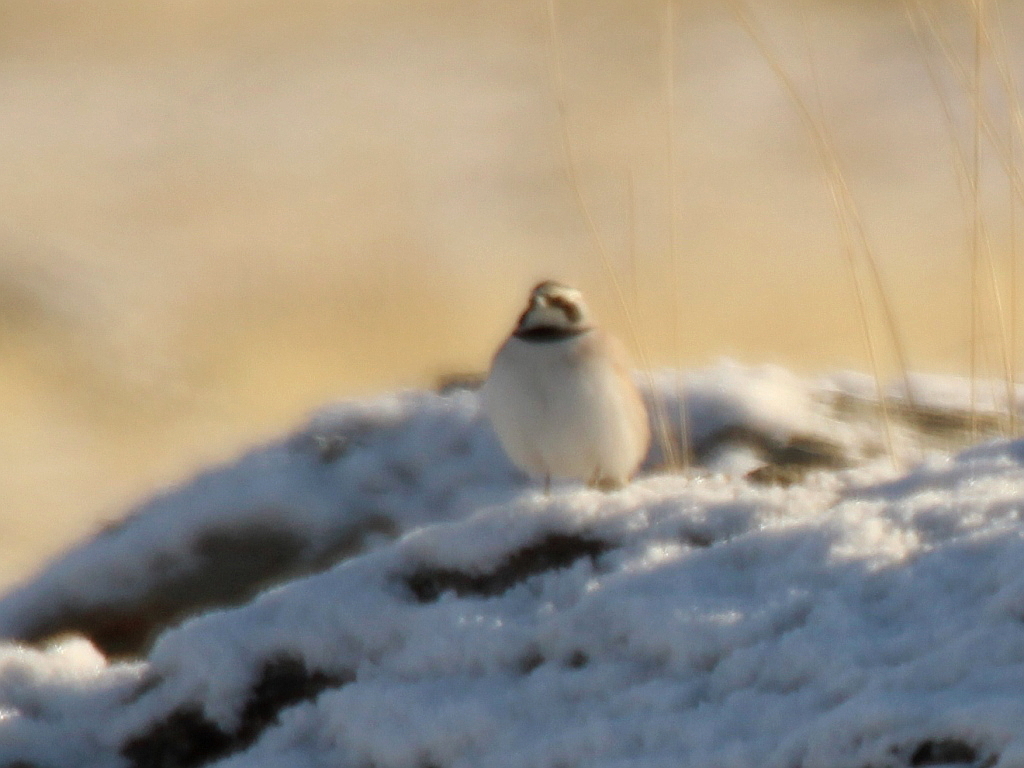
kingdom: Animalia
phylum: Chordata
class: Aves
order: Passeriformes
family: Alaudidae
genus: Eremophila
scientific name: Eremophila alpestris
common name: Horned lark
